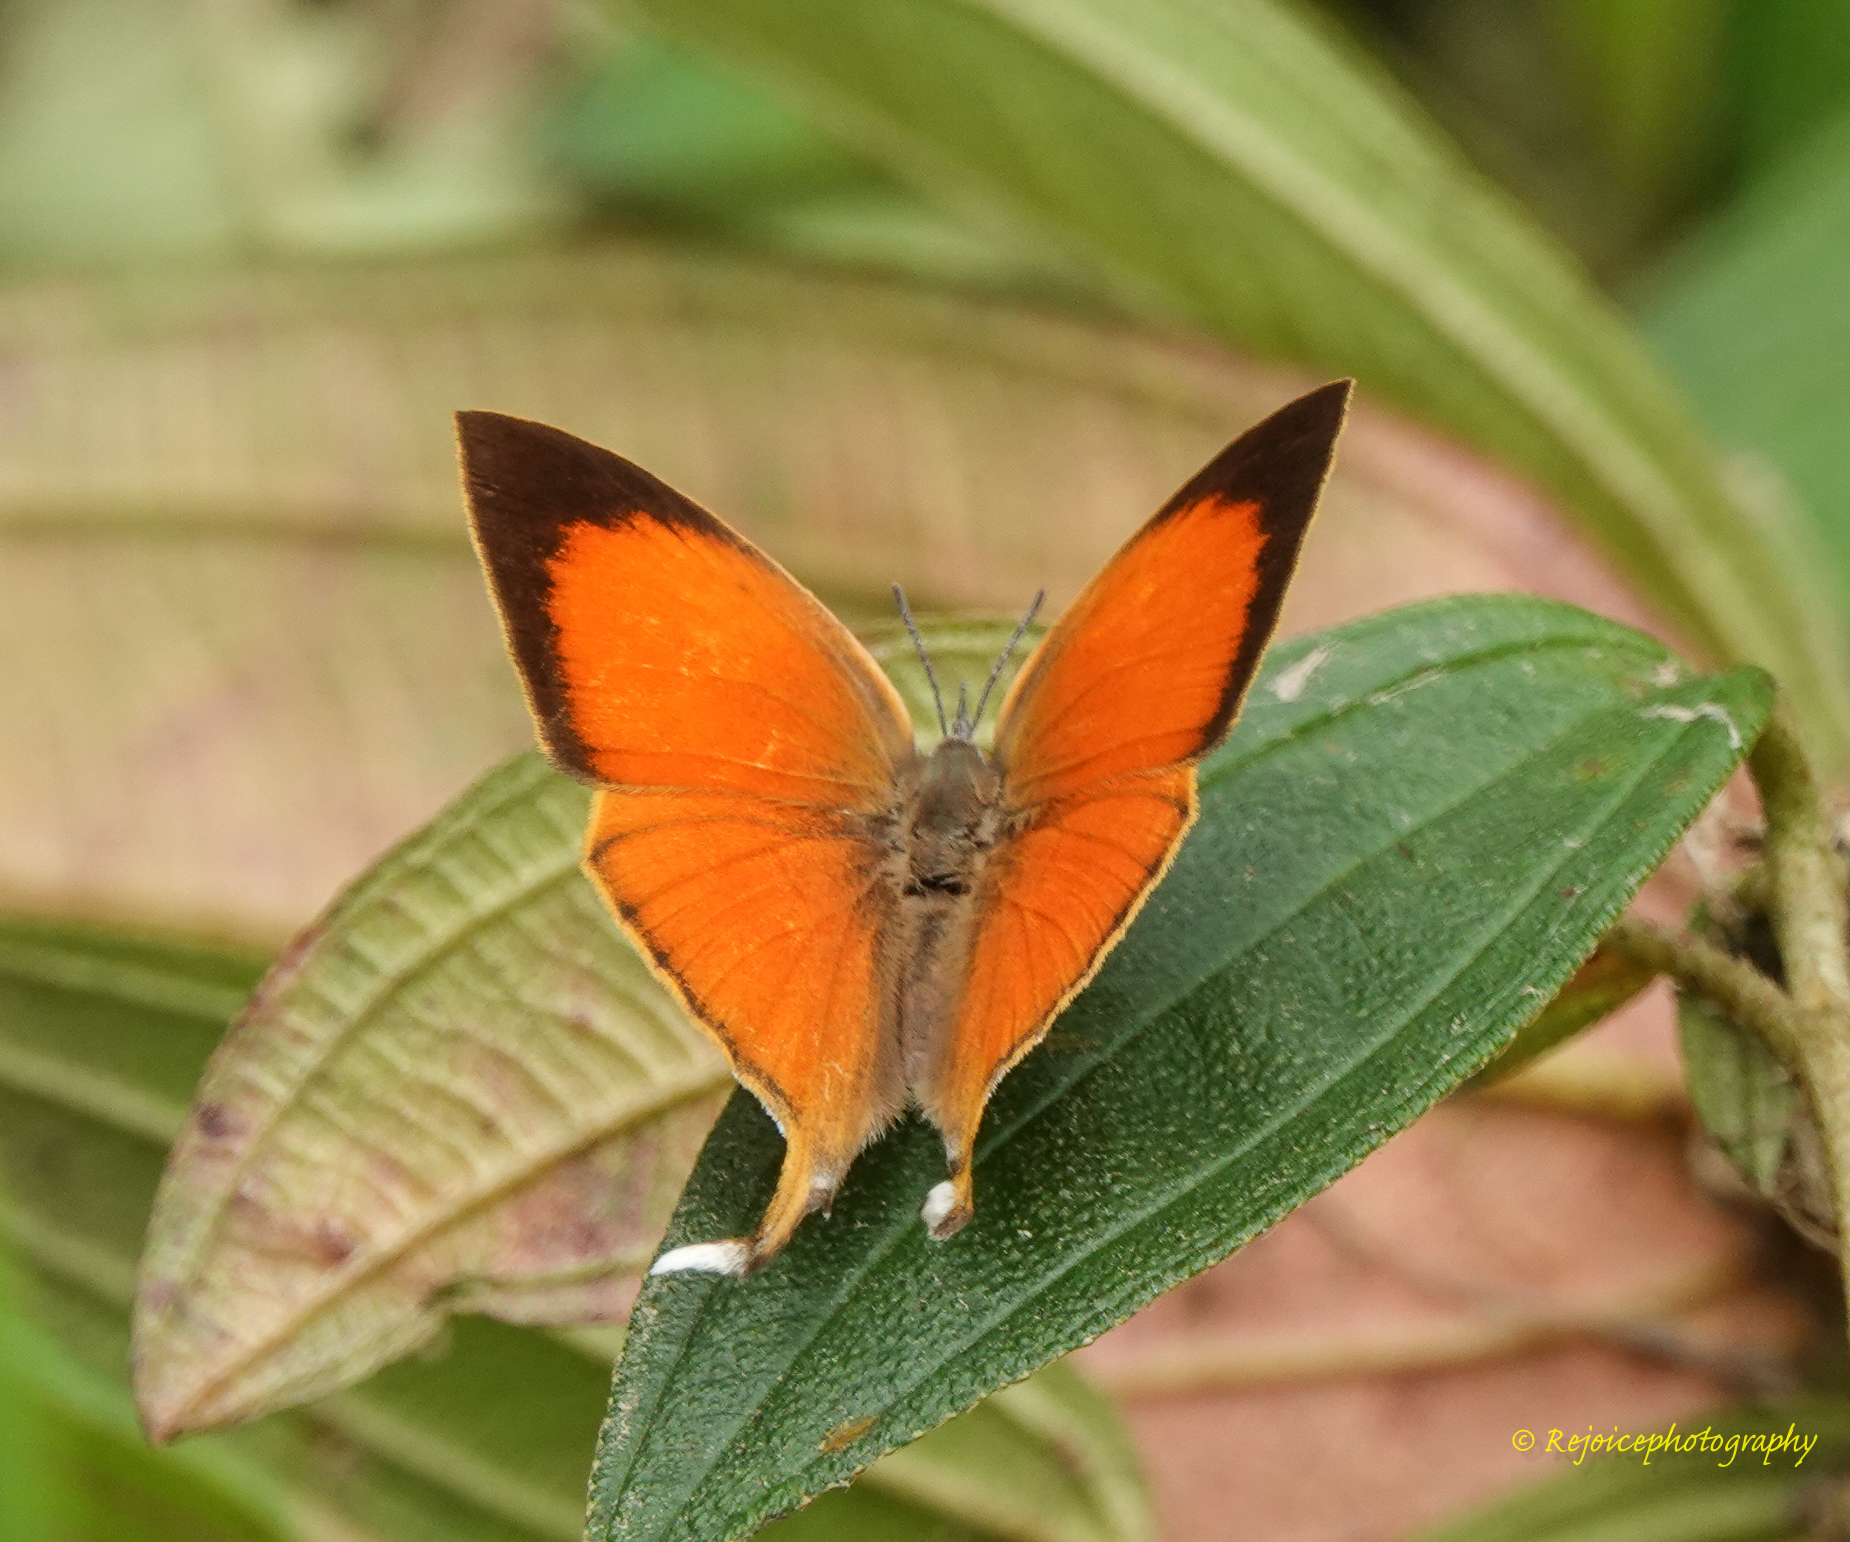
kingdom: Animalia
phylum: Arthropoda
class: Insecta
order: Lepidoptera
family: Lycaenidae
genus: Loxura
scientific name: Loxura atymnus
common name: Common yamfly
